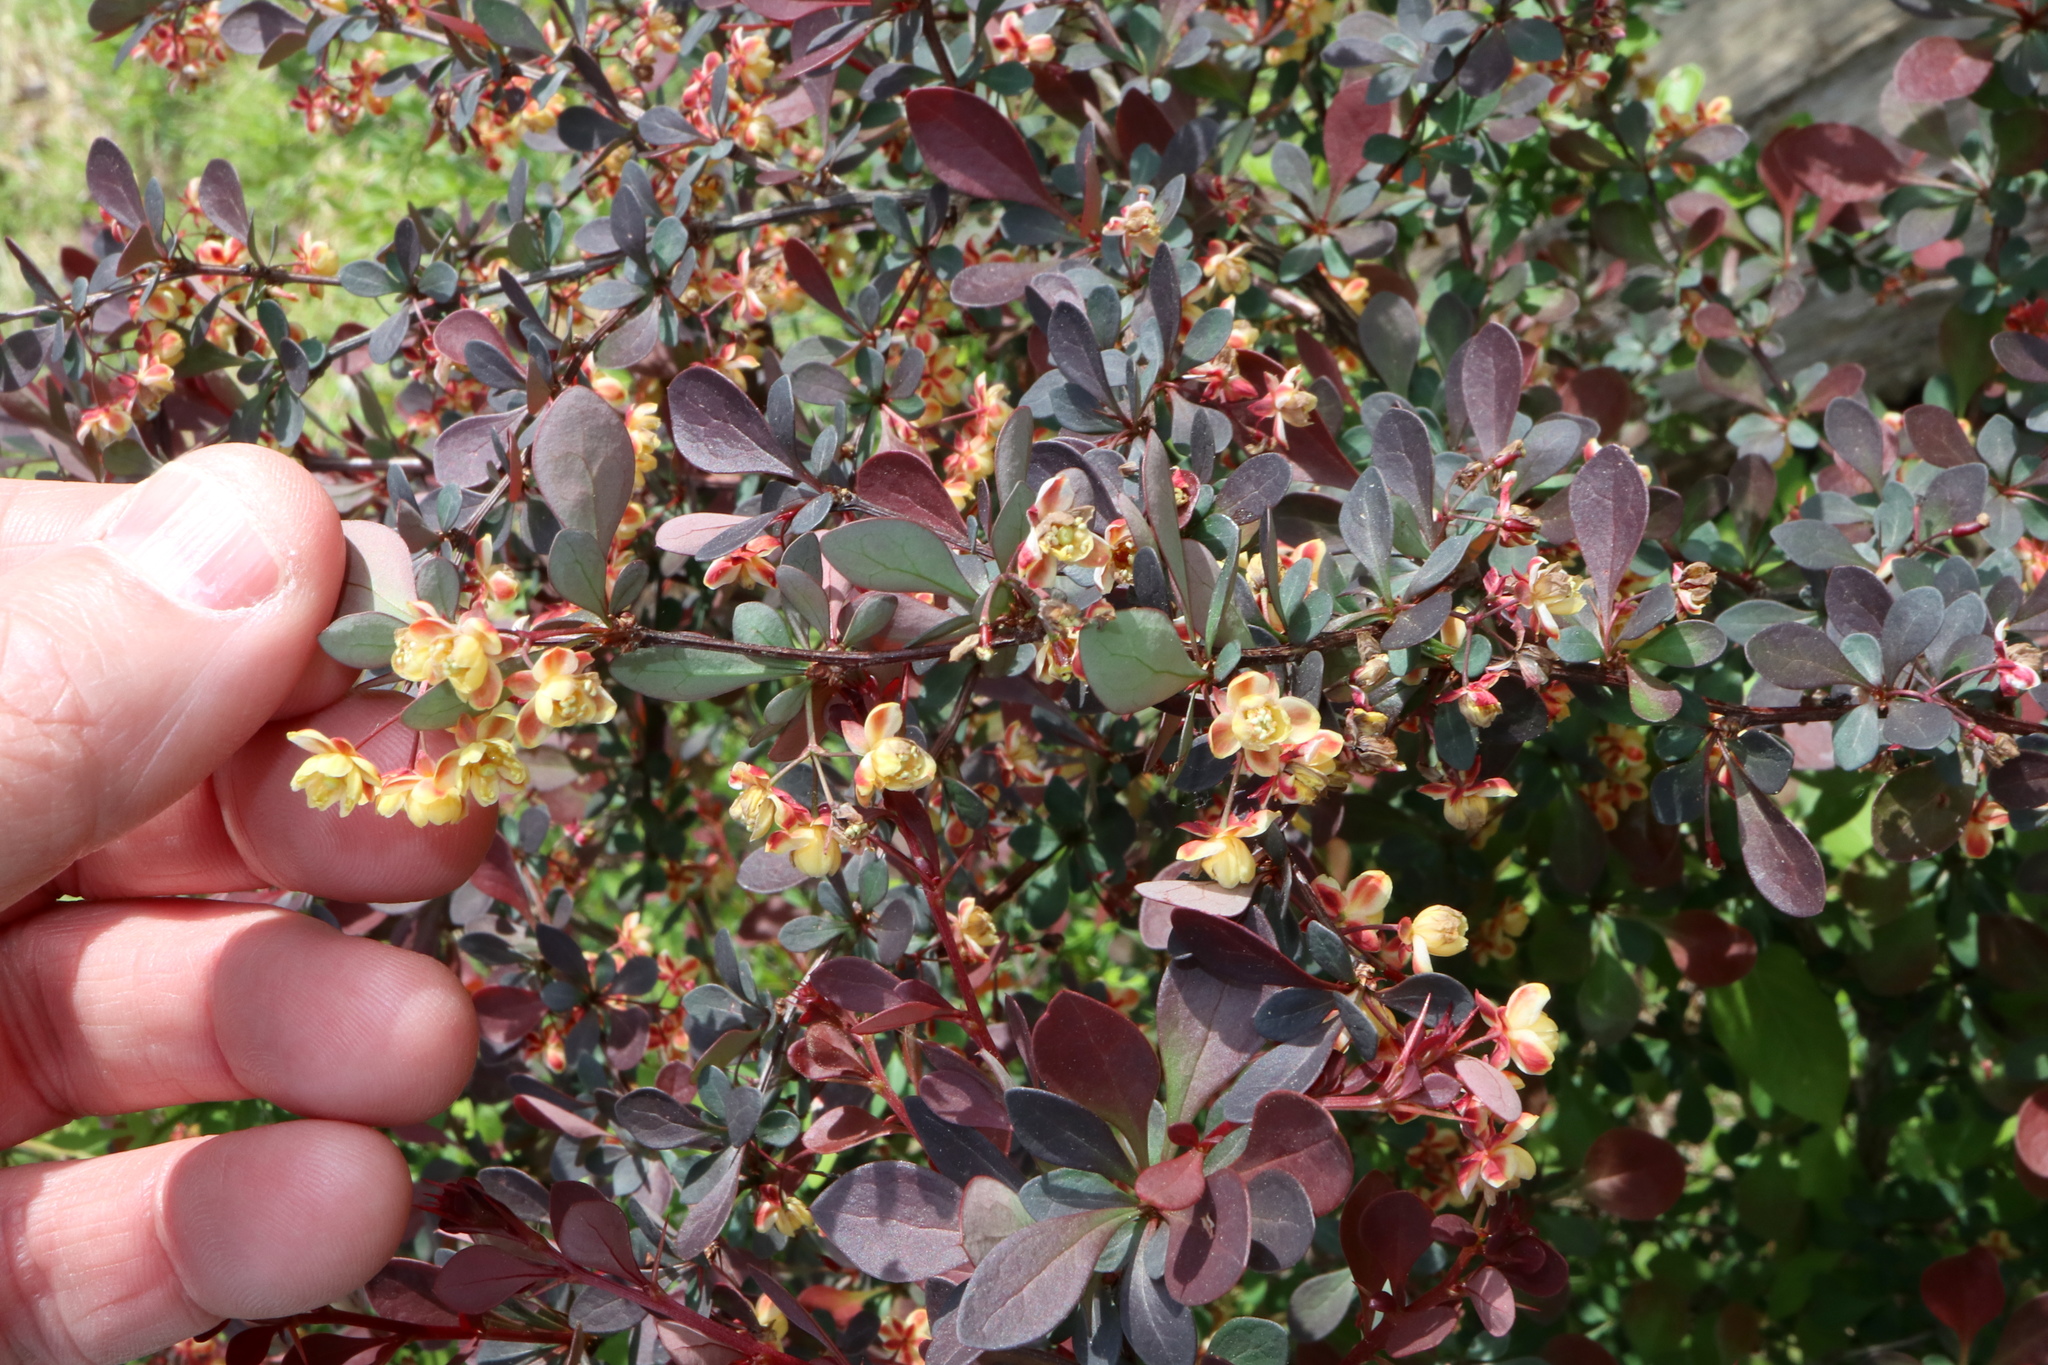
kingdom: Plantae
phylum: Tracheophyta
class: Magnoliopsida
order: Ranunculales
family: Berberidaceae
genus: Berberis
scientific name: Berberis thunbergii
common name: Japanese barberry
